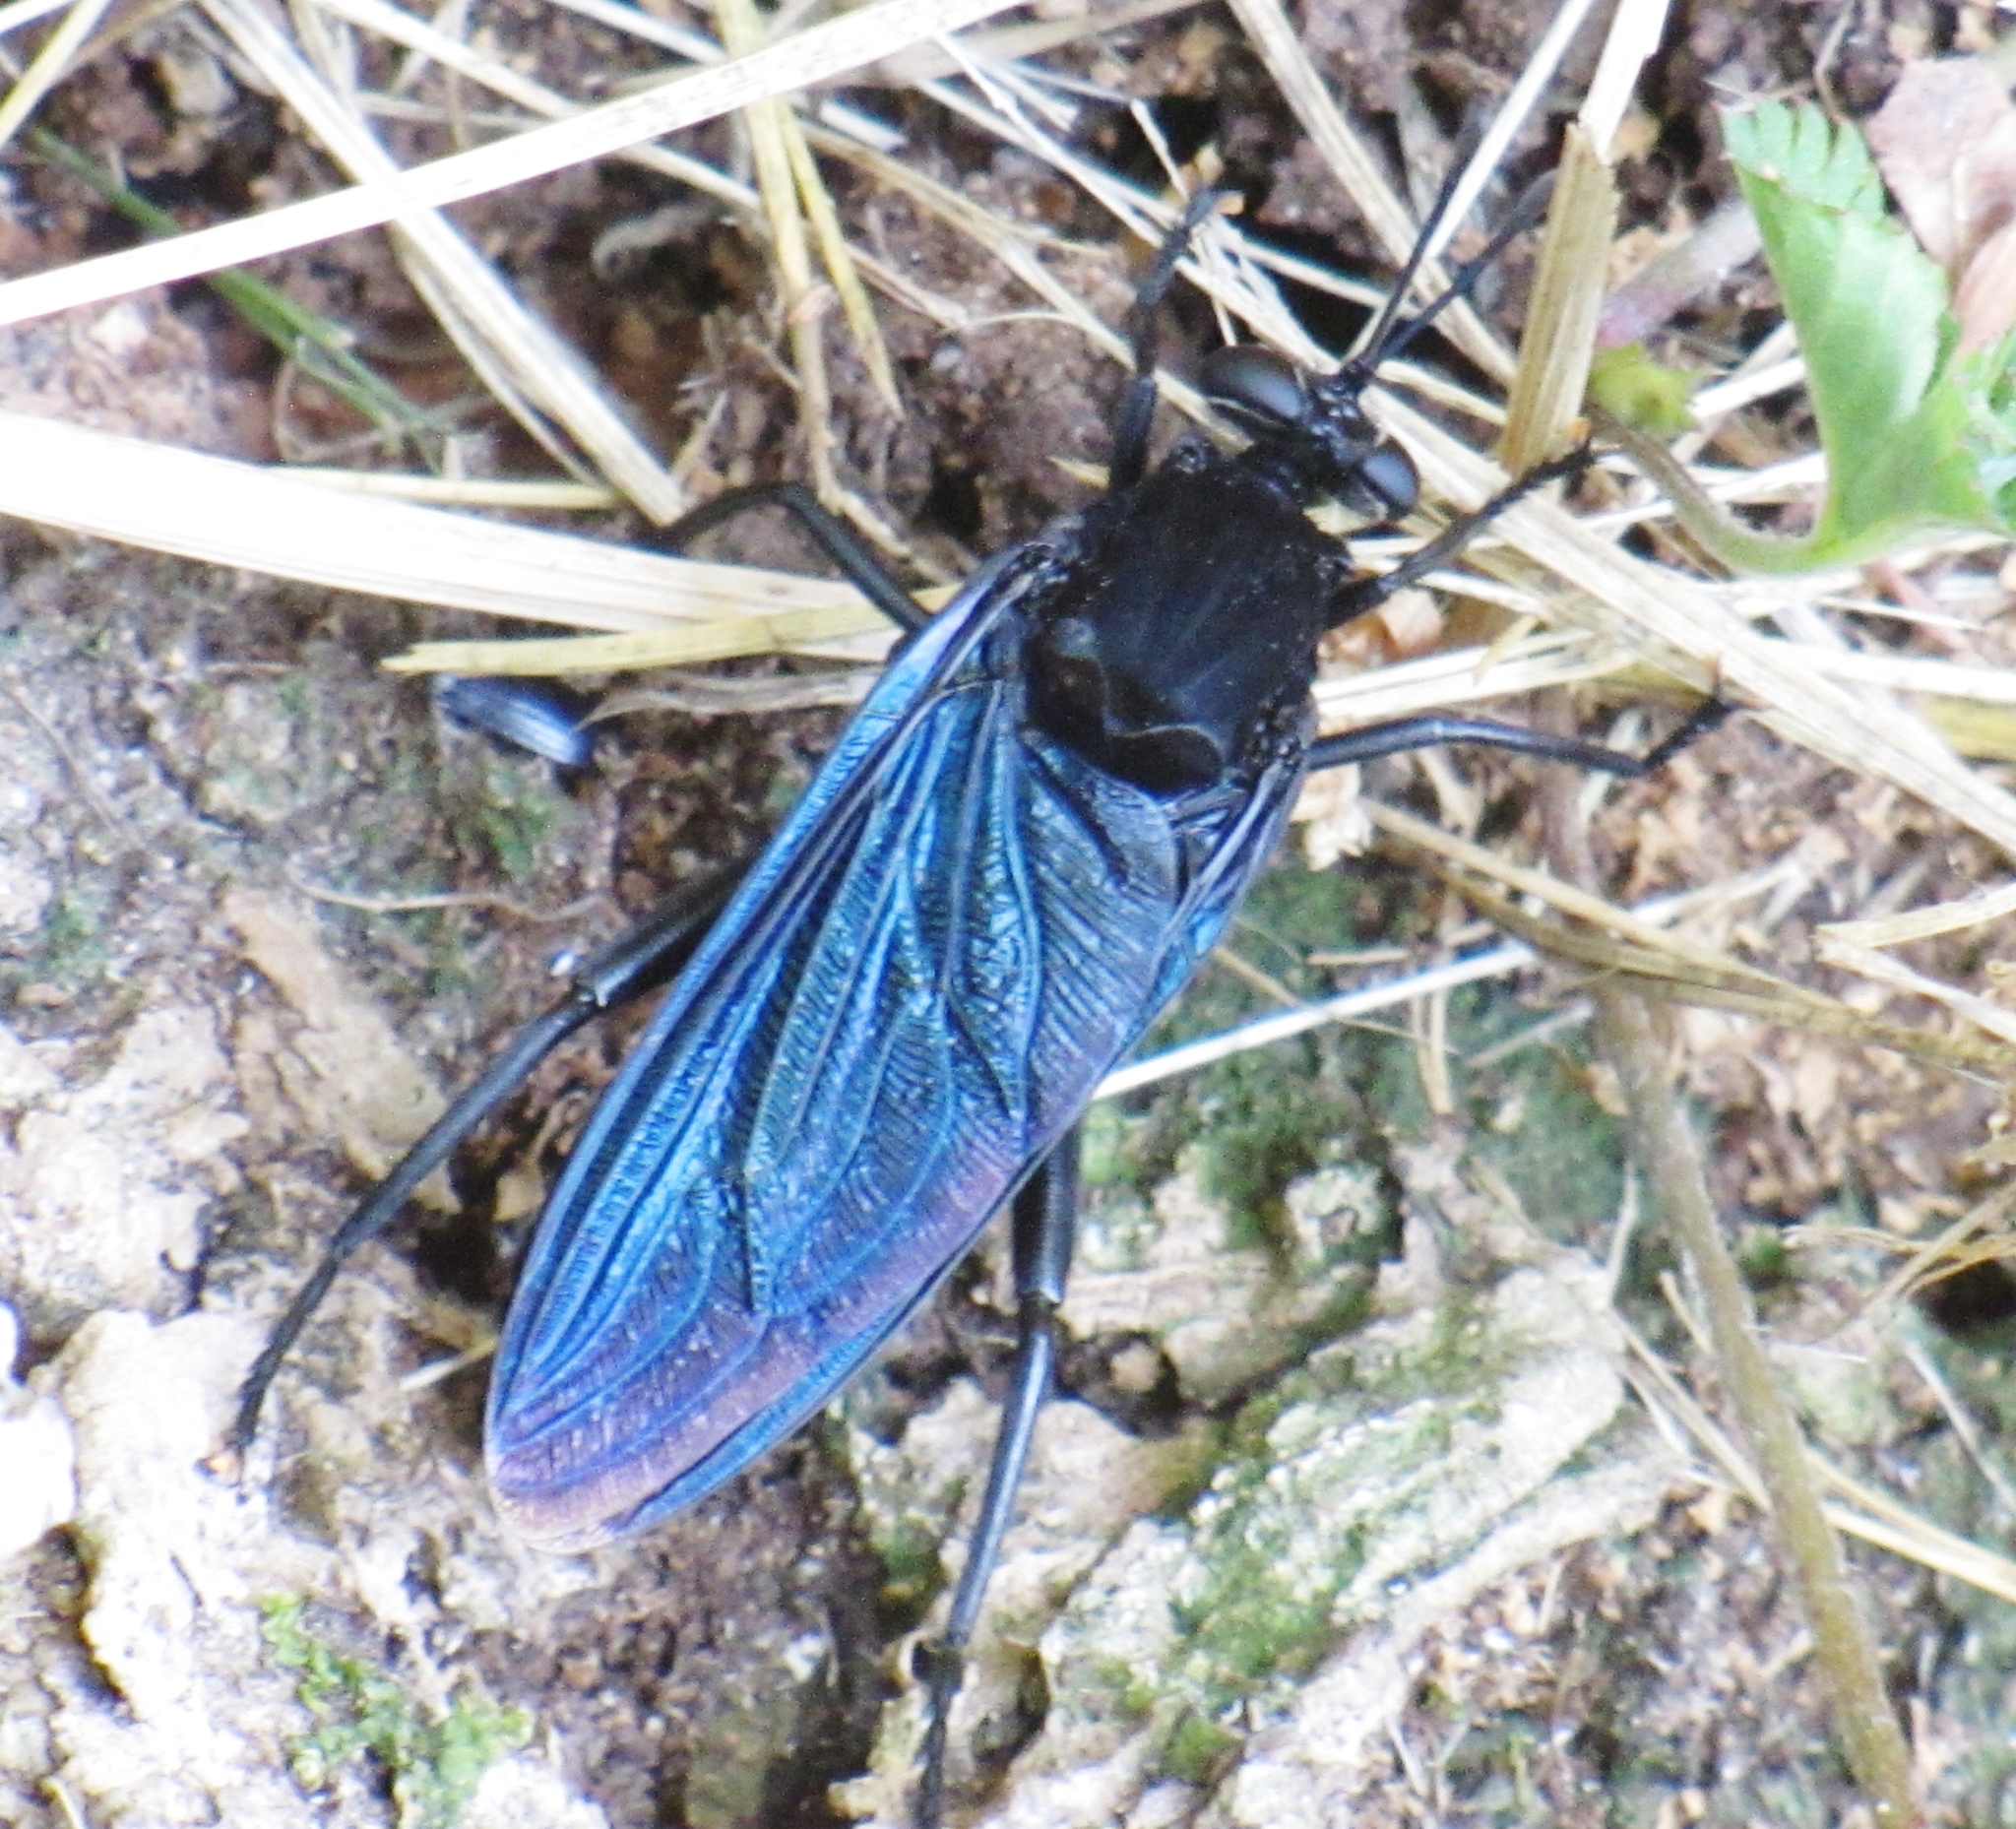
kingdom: Animalia
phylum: Arthropoda
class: Insecta
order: Diptera
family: Mydidae
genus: Mydas
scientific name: Mydas clavatus
